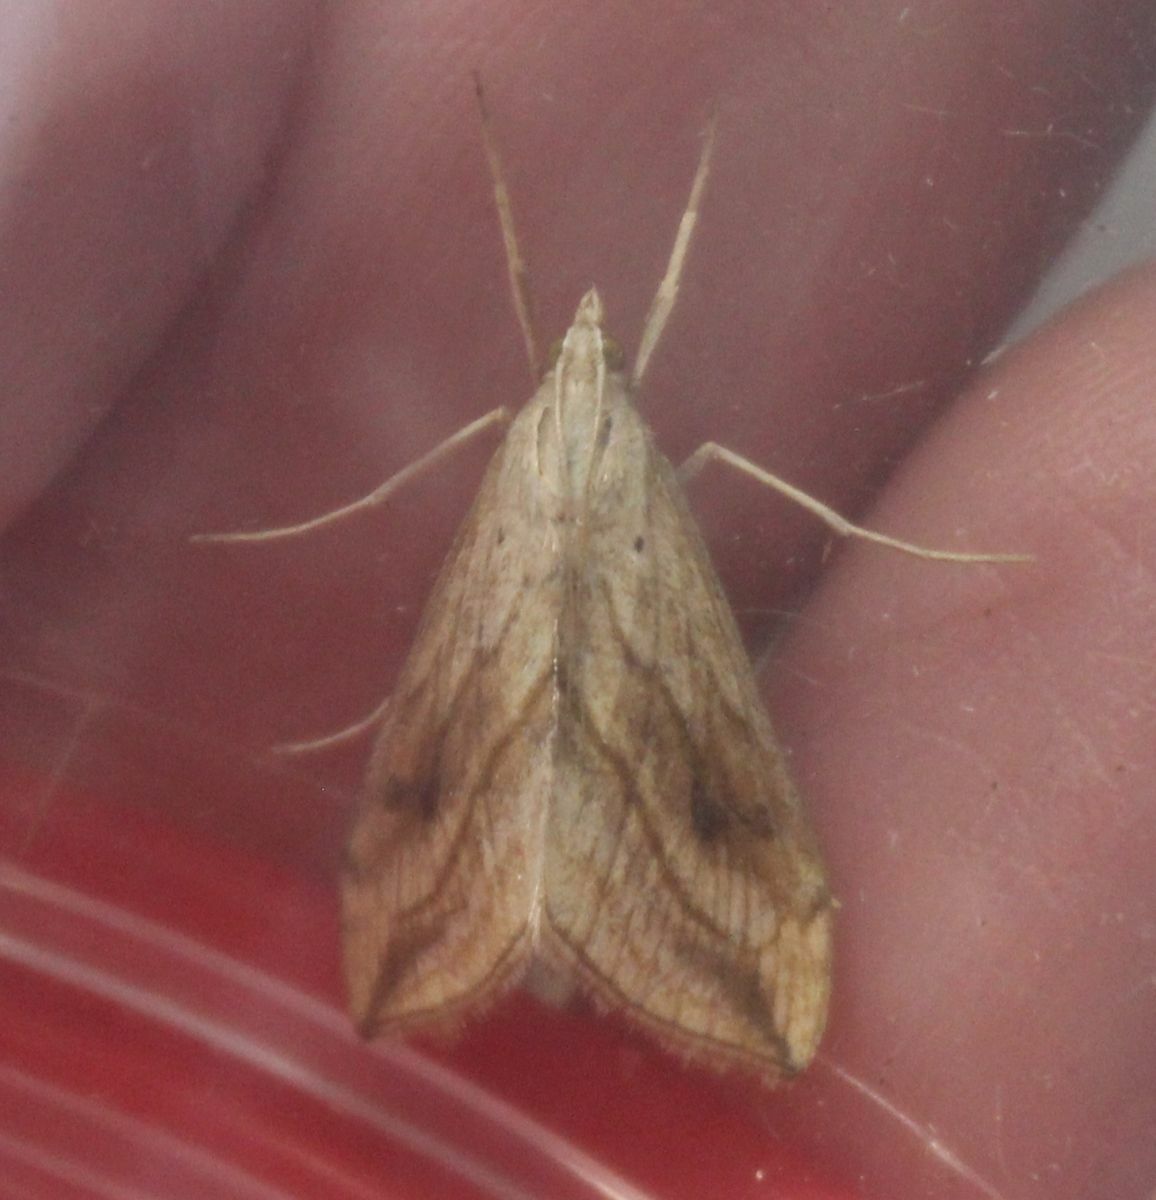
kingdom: Animalia
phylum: Arthropoda
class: Insecta
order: Lepidoptera
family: Crambidae
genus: Evergestis
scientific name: Evergestis forficalis
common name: Garden pebble
